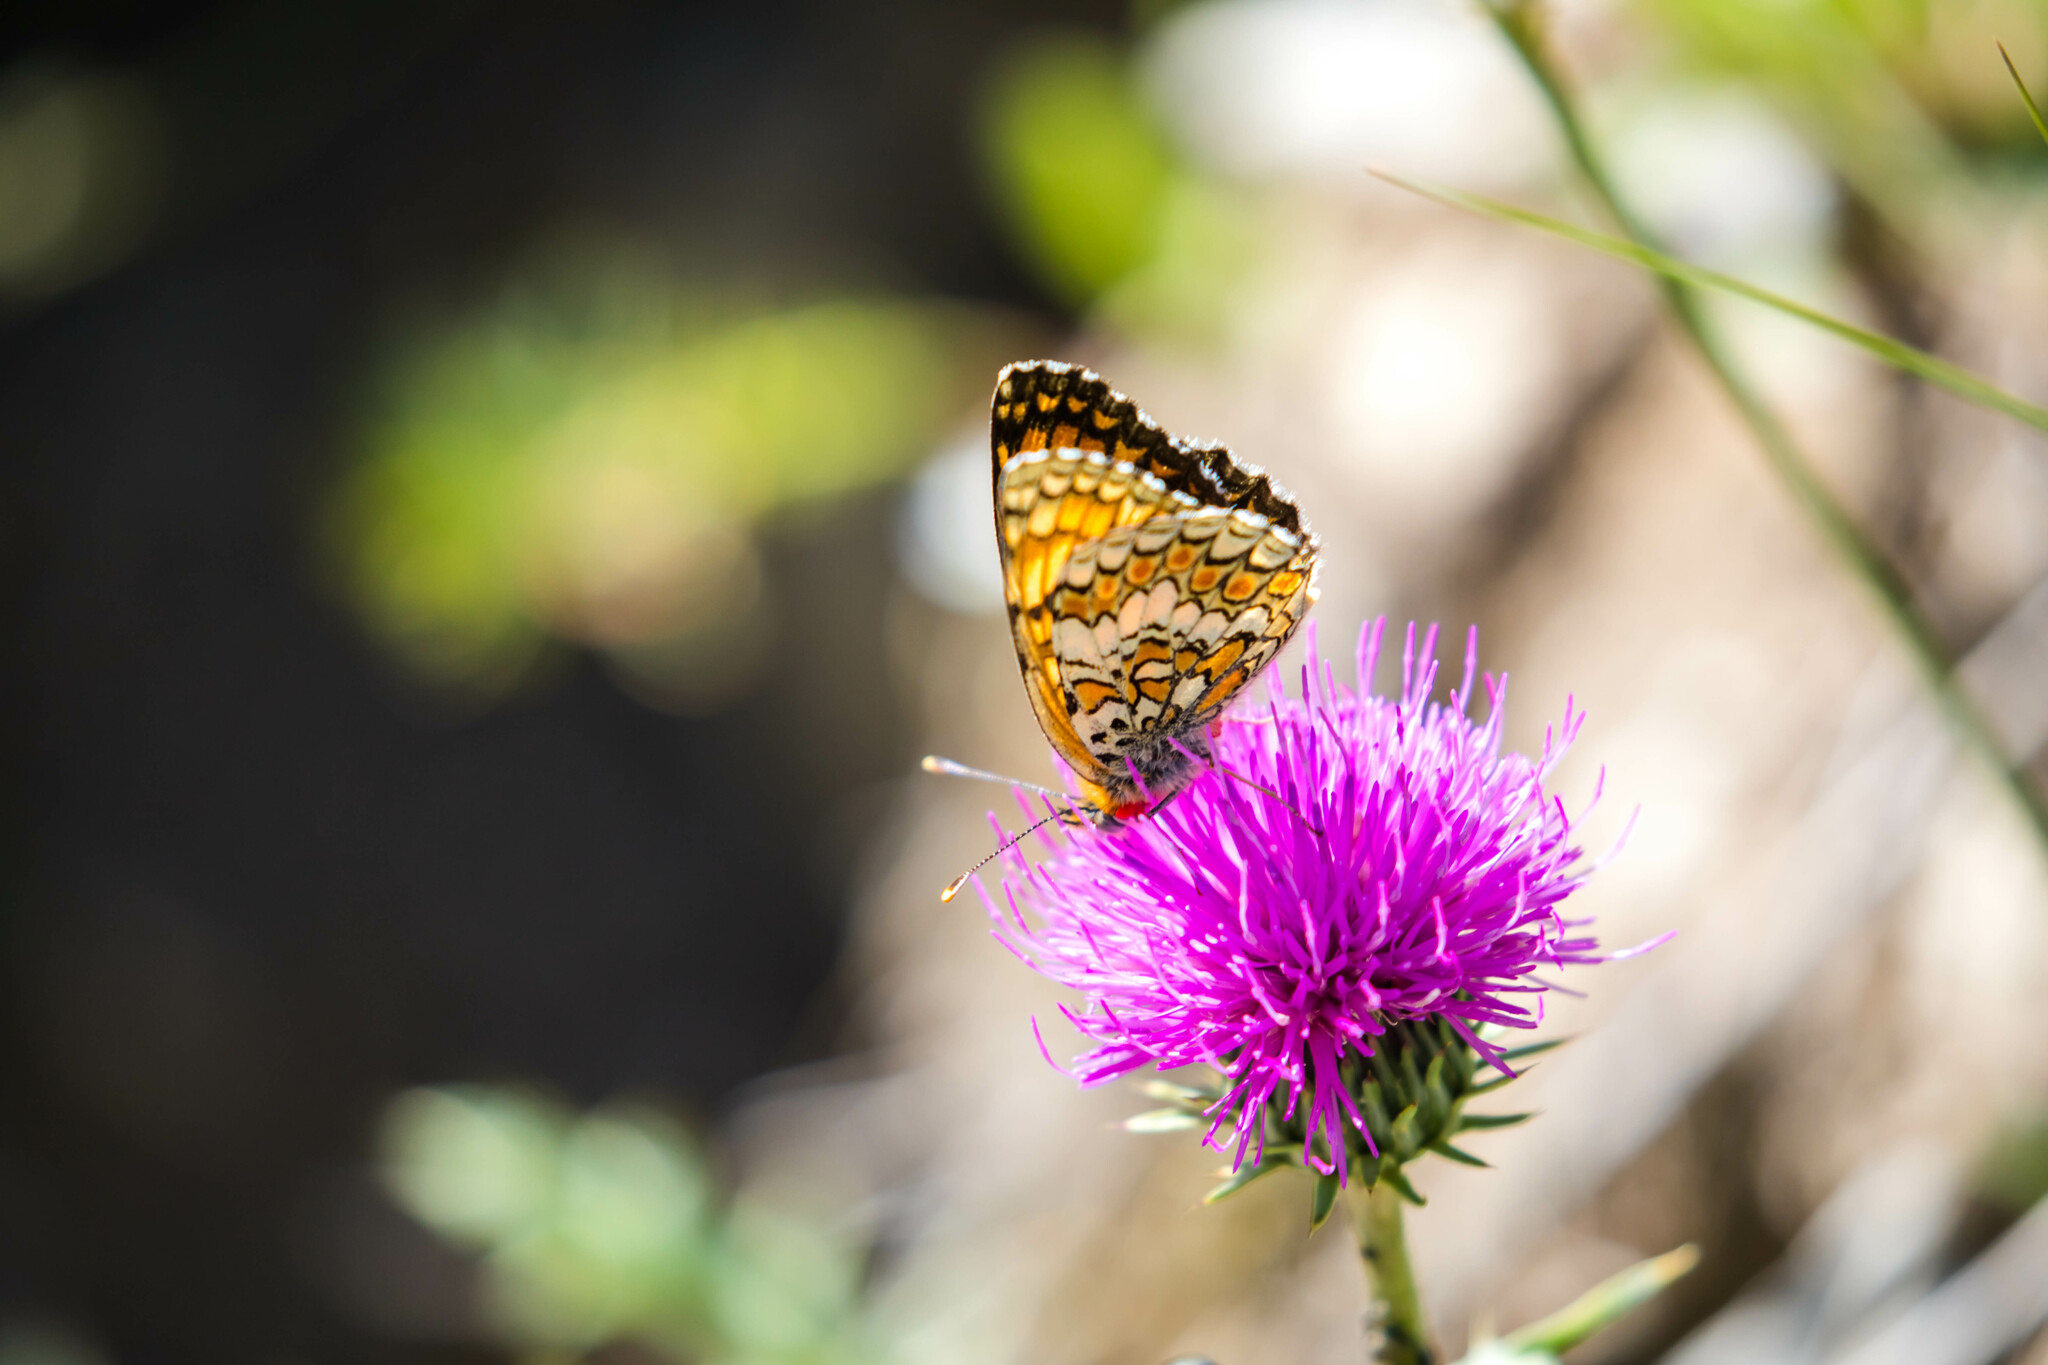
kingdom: Animalia
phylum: Arthropoda
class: Insecta
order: Lepidoptera
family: Nymphalidae
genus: Melitaea
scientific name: Melitaea phoebe
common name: Knapweed fritillary
